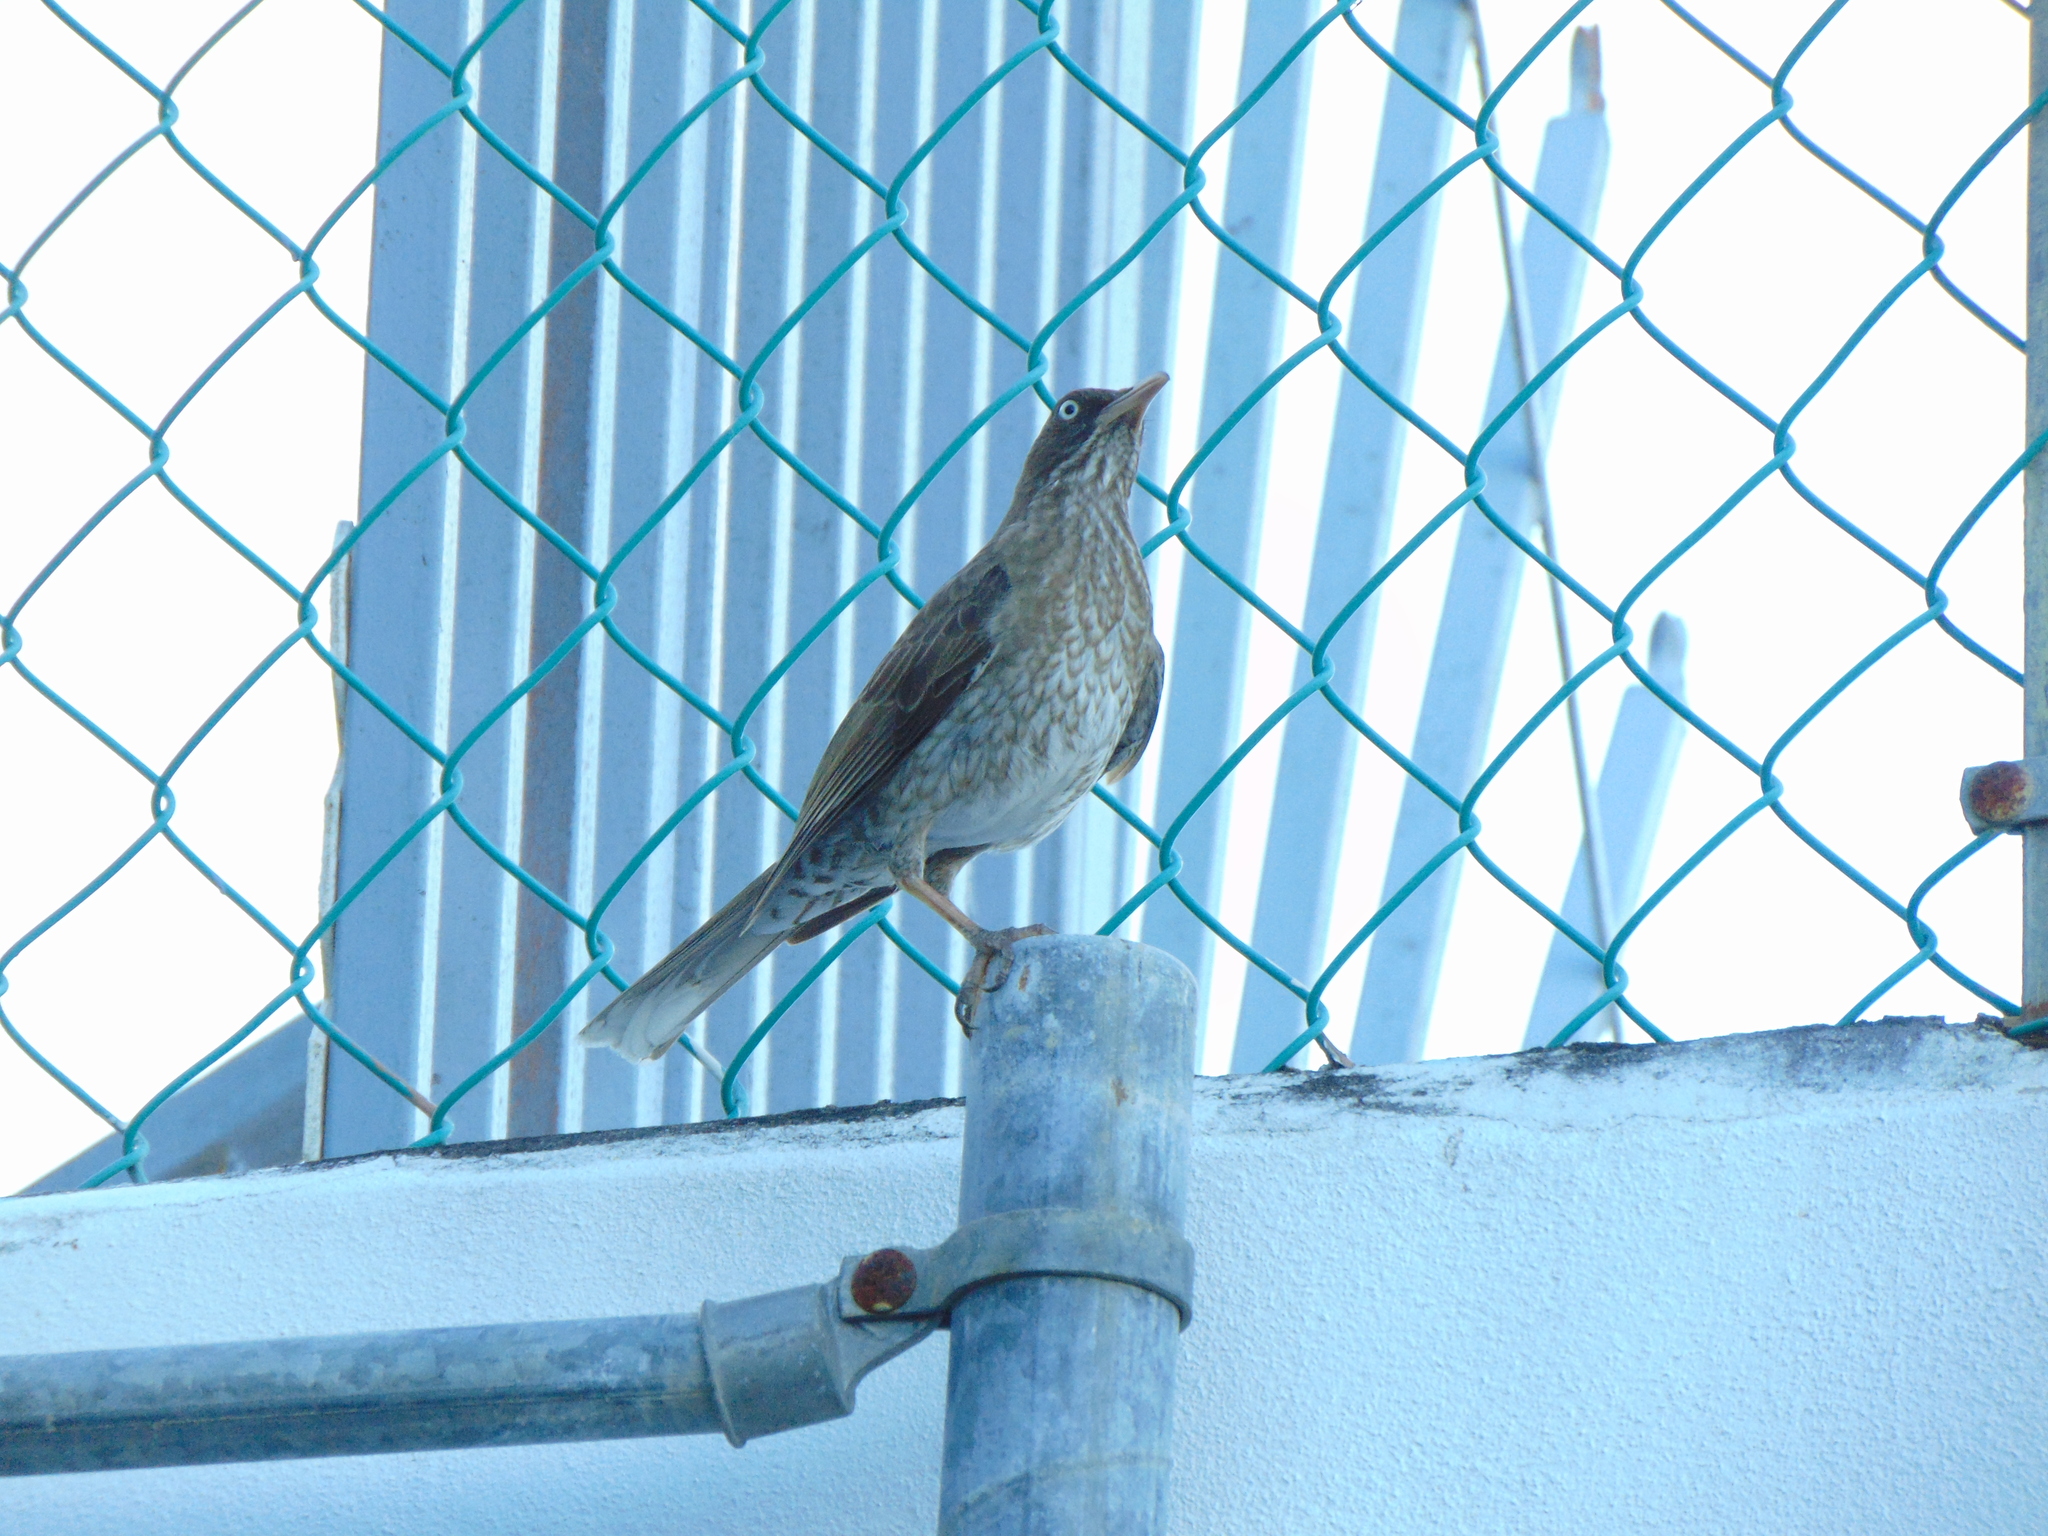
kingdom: Animalia
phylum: Chordata
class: Aves
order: Passeriformes
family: Mimidae
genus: Margarops
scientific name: Margarops fuscatus
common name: Pearly-eyed thrasher
